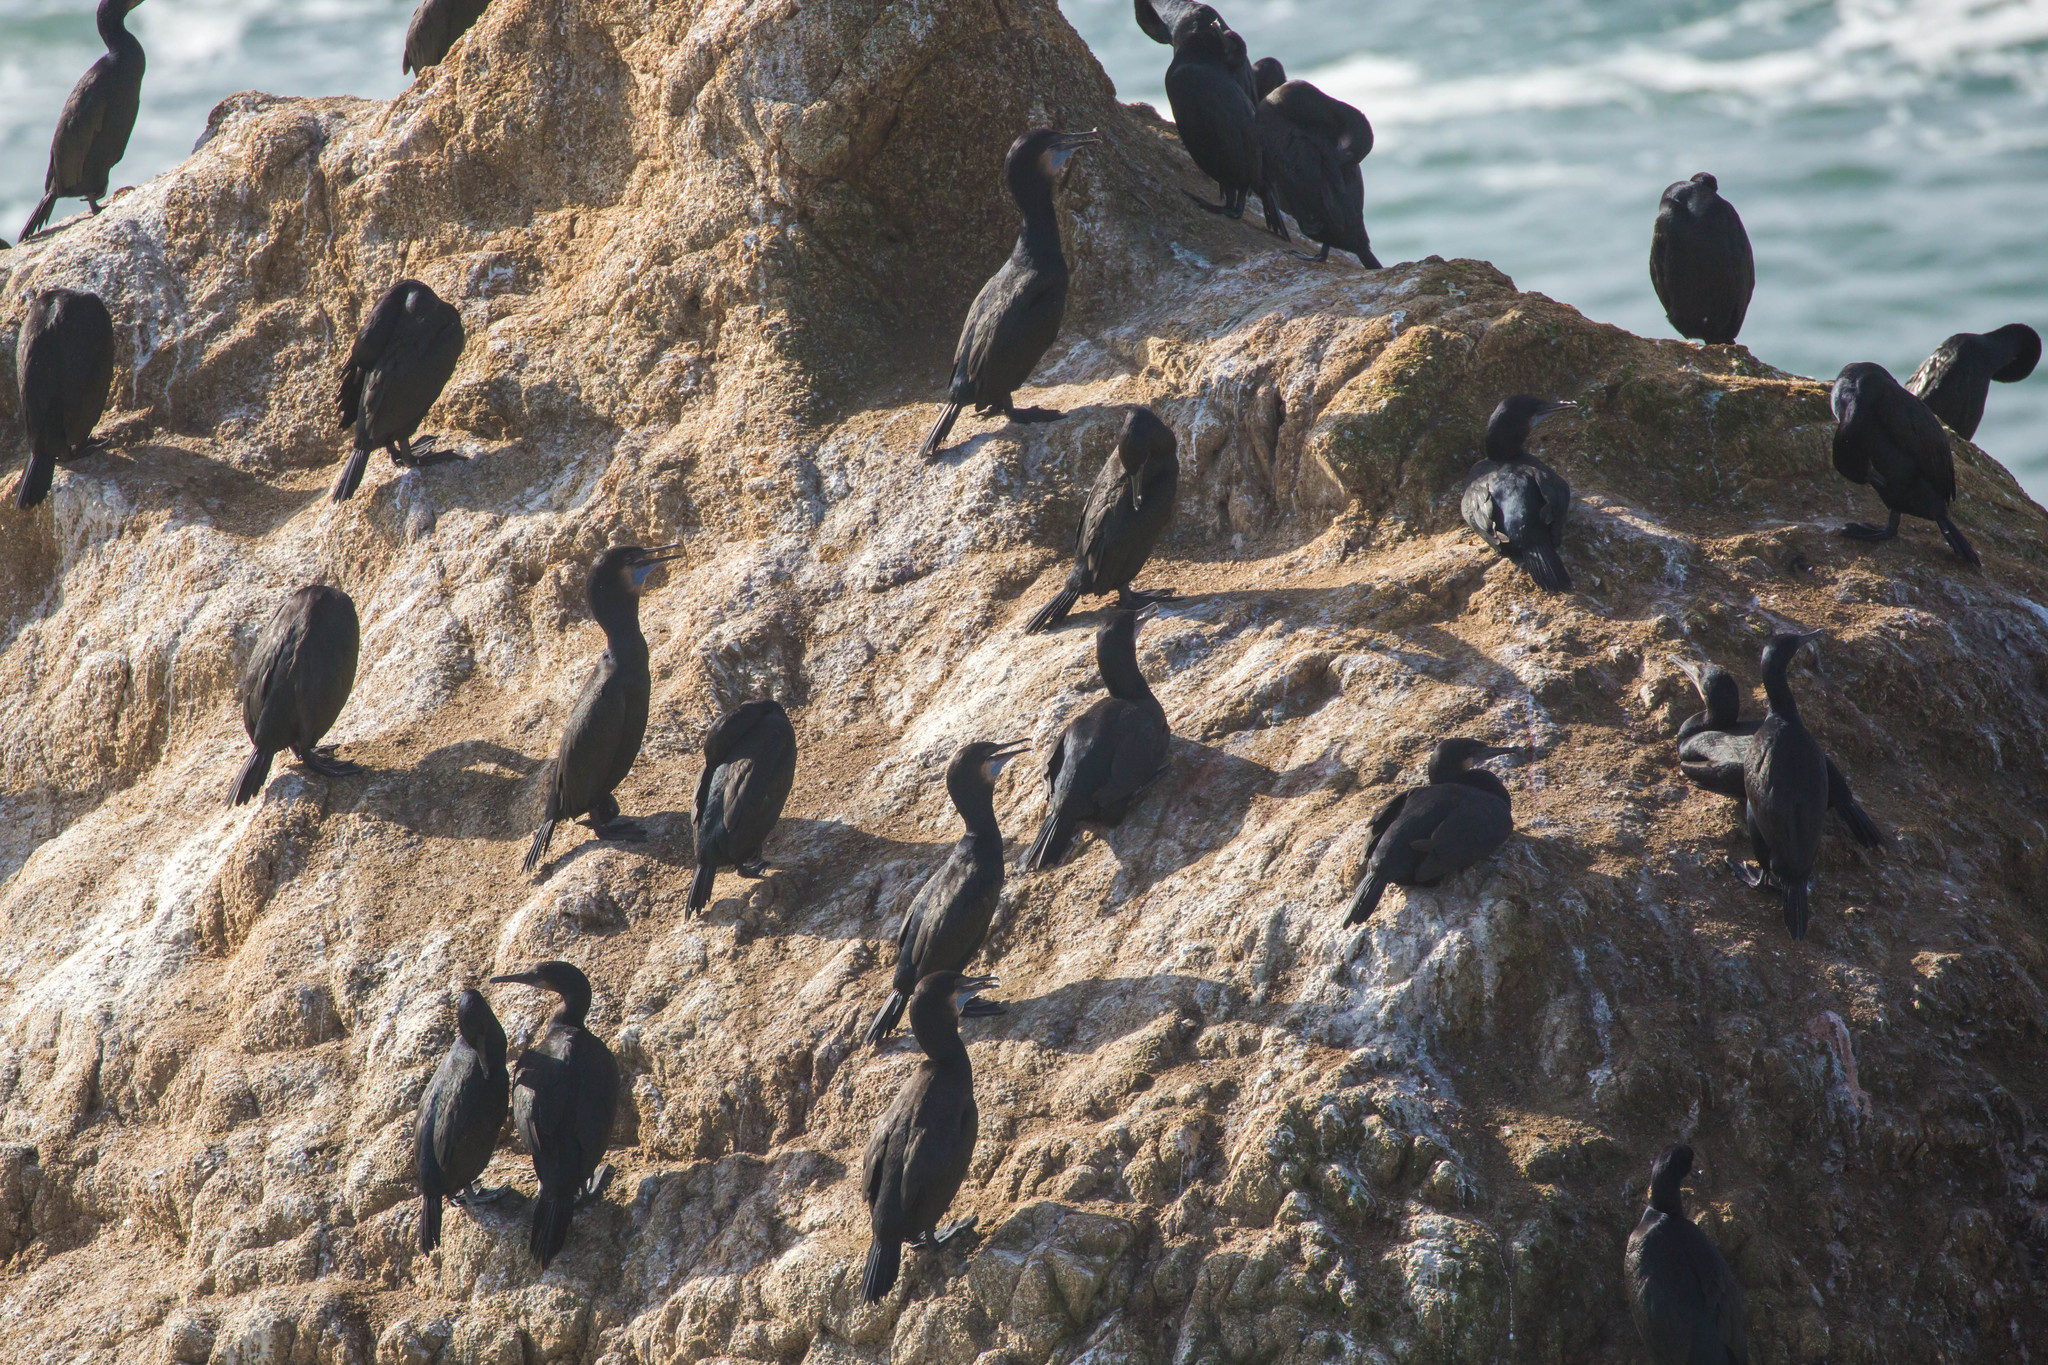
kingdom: Animalia
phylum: Chordata
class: Aves
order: Suliformes
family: Phalacrocoracidae
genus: Urile
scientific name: Urile penicillatus
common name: Brandt's cormorant
